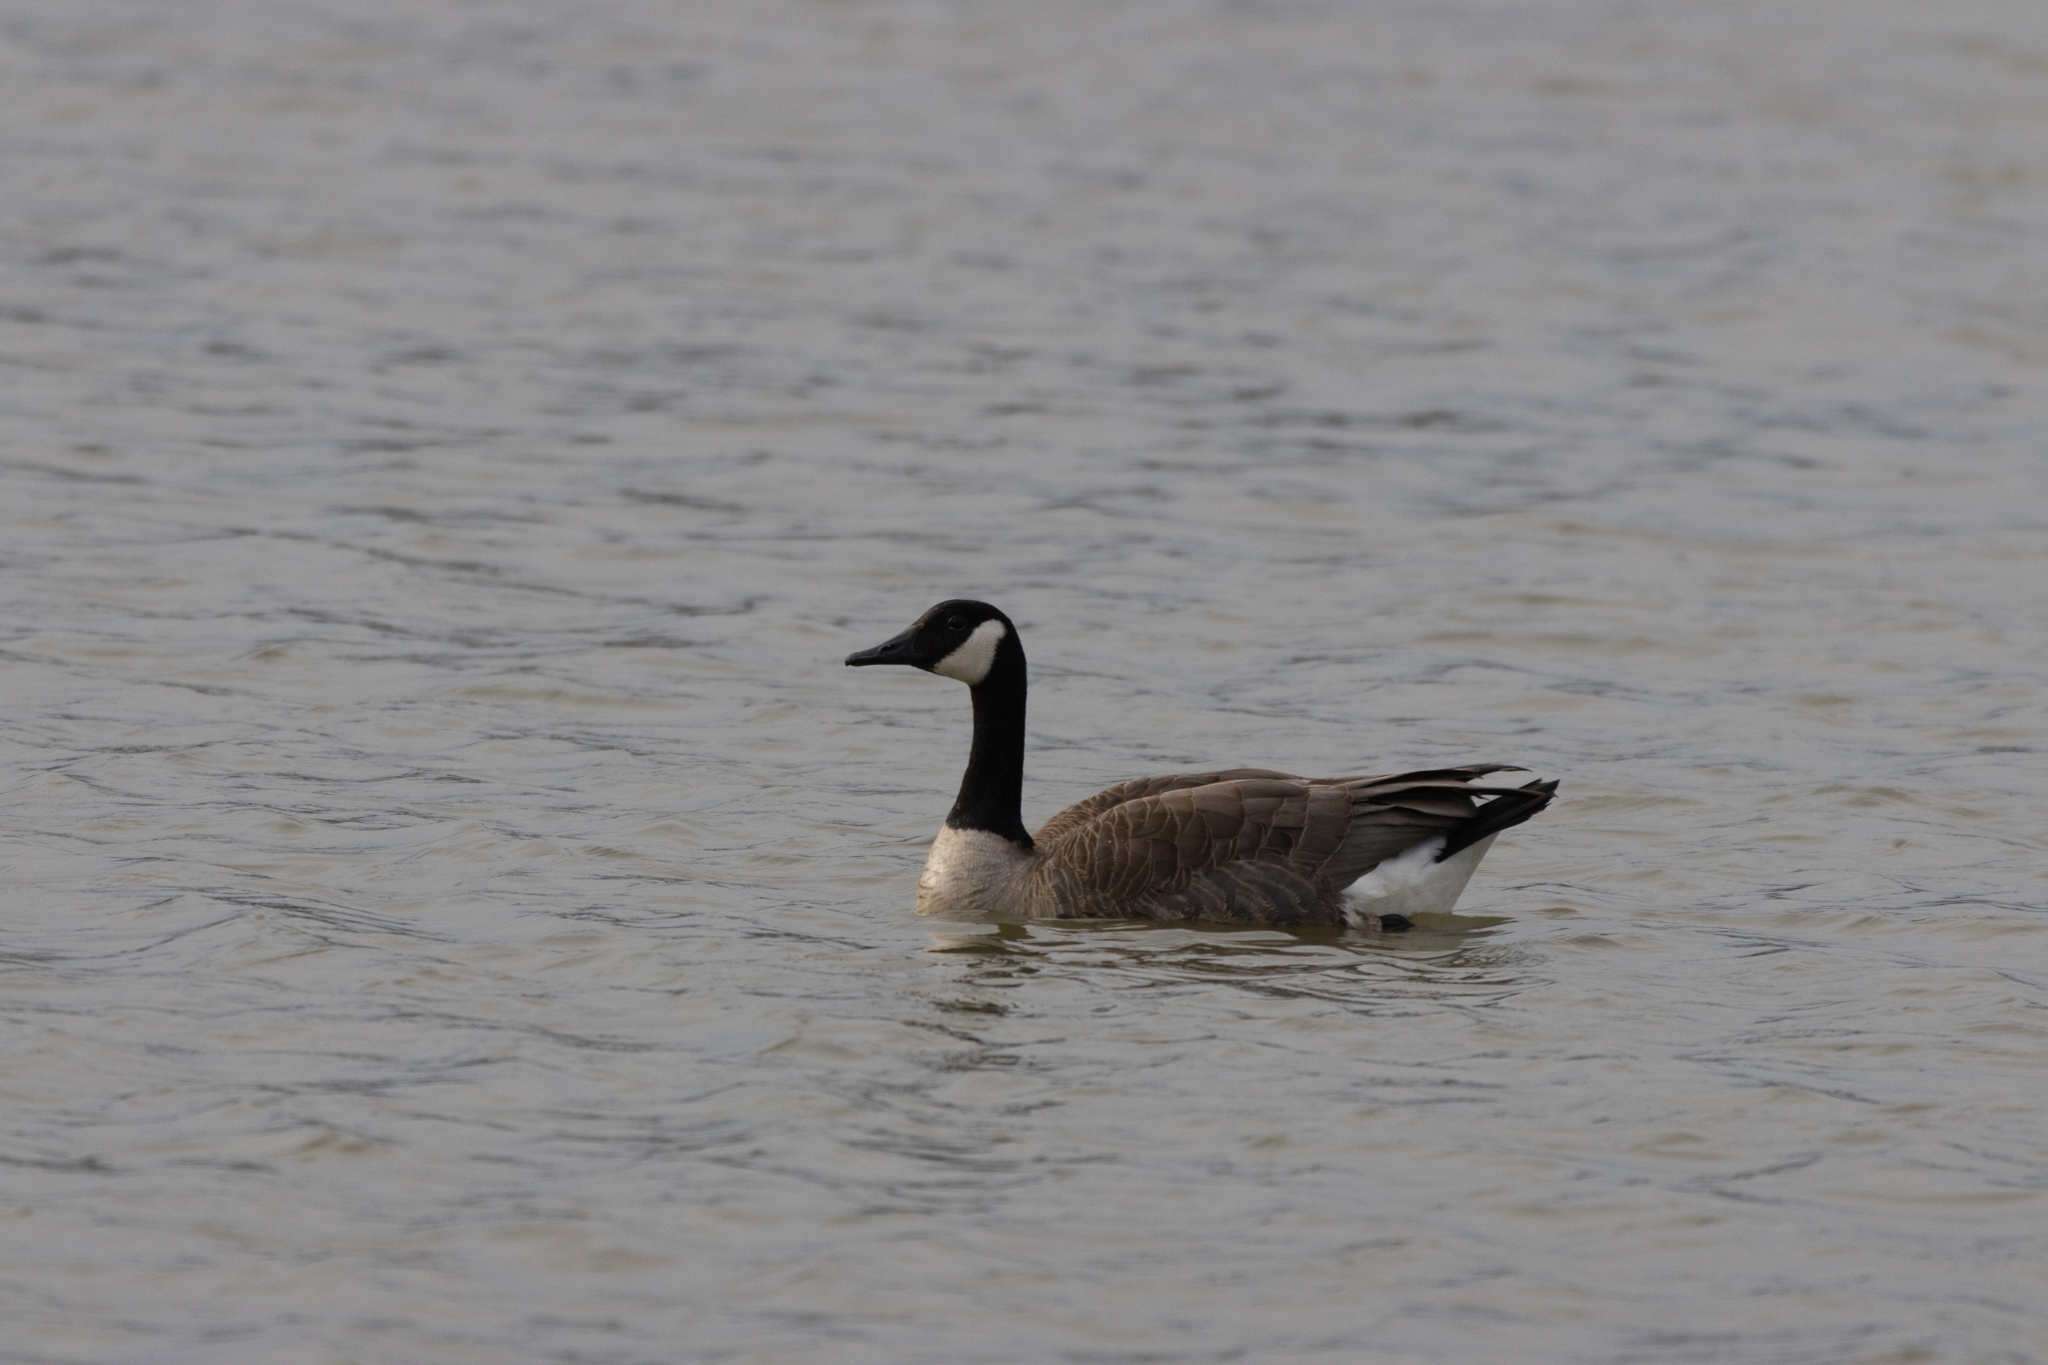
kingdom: Animalia
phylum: Chordata
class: Aves
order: Anseriformes
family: Anatidae
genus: Branta
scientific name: Branta canadensis
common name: Canada goose
